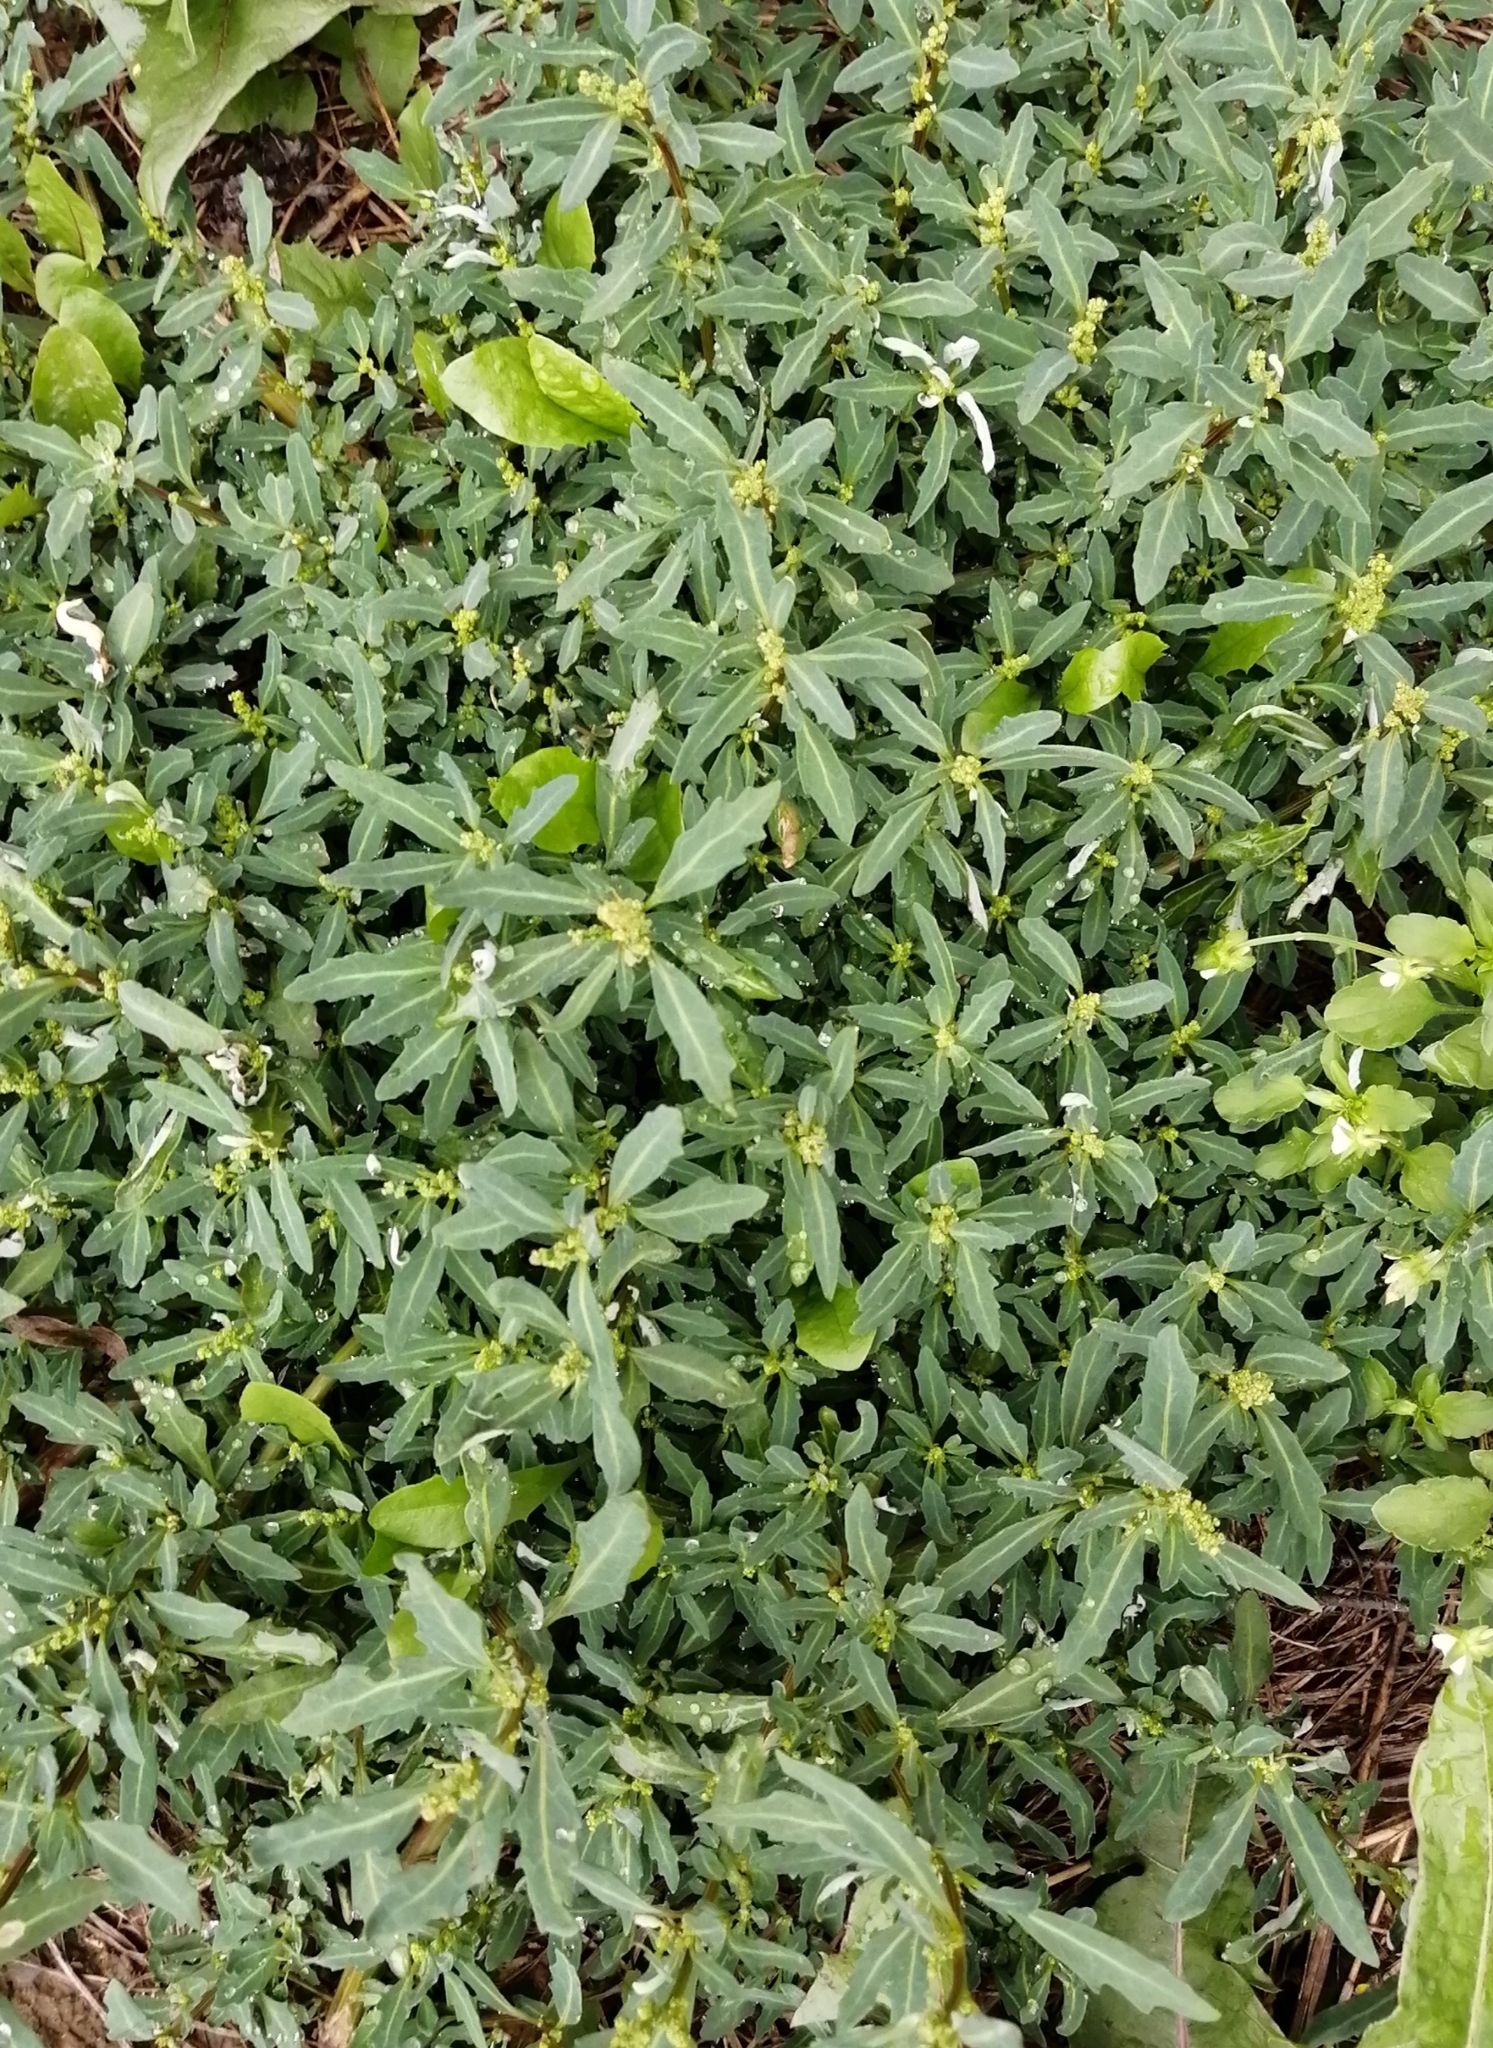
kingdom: Plantae
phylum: Tracheophyta
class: Magnoliopsida
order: Caryophyllales
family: Amaranthaceae
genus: Oxybasis
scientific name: Oxybasis glauca
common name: Glaucous goosefoot
